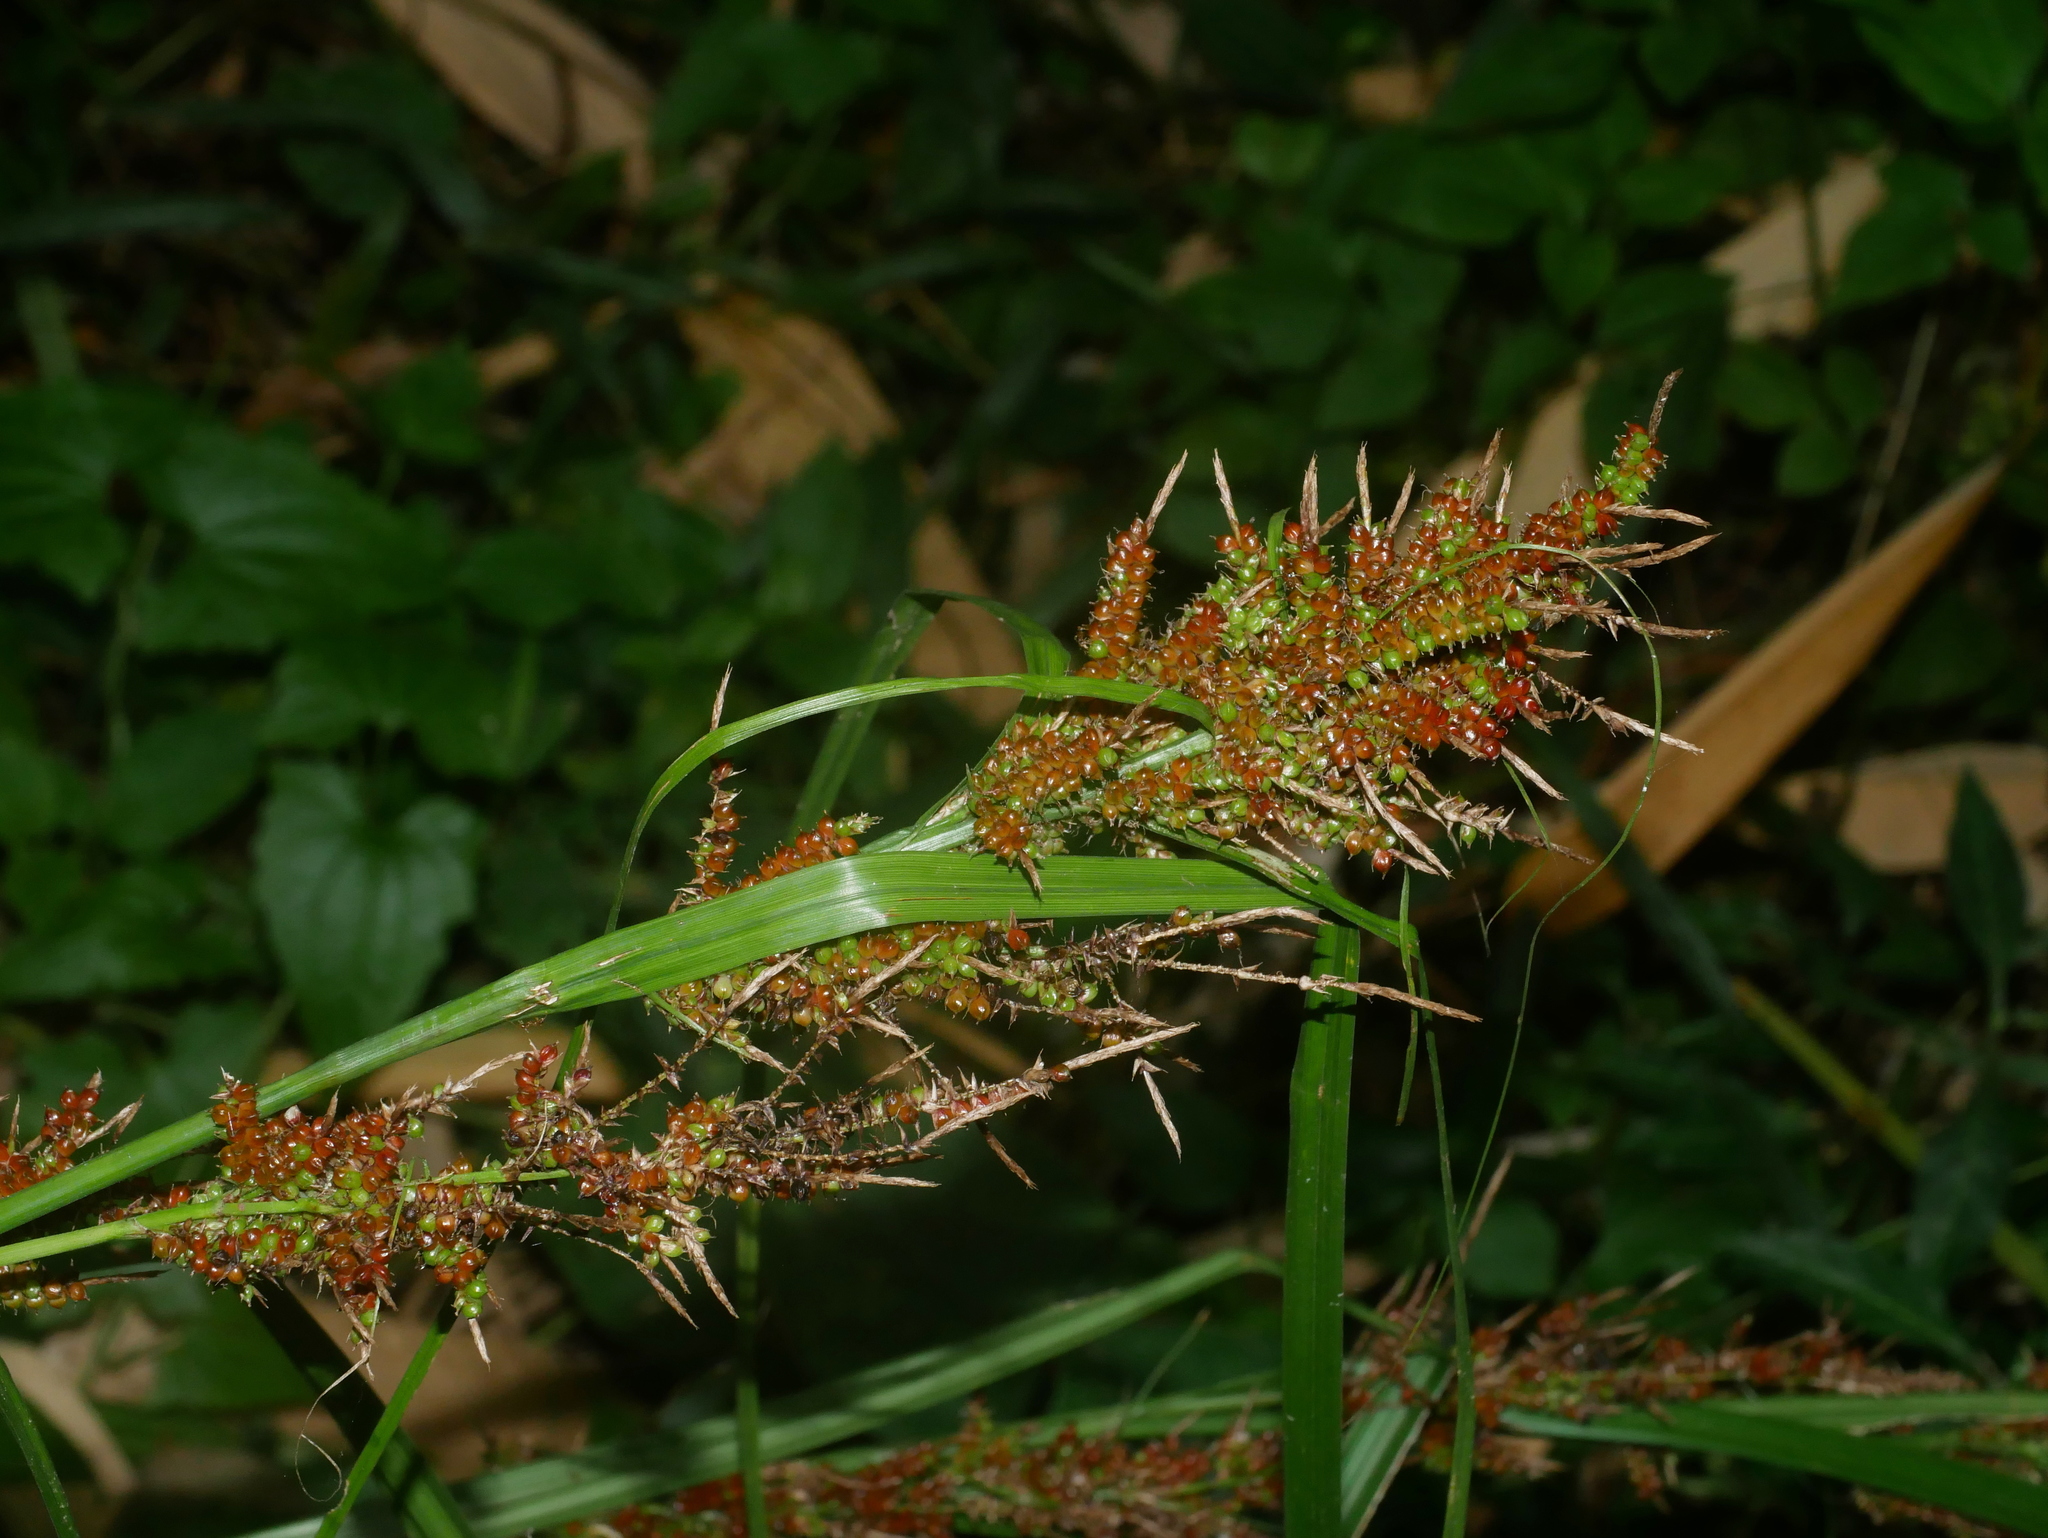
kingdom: Plantae
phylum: Tracheophyta
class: Liliopsida
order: Poales
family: Cyperaceae
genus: Carex
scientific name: Carex baccans
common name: Crimson seeded sedge
